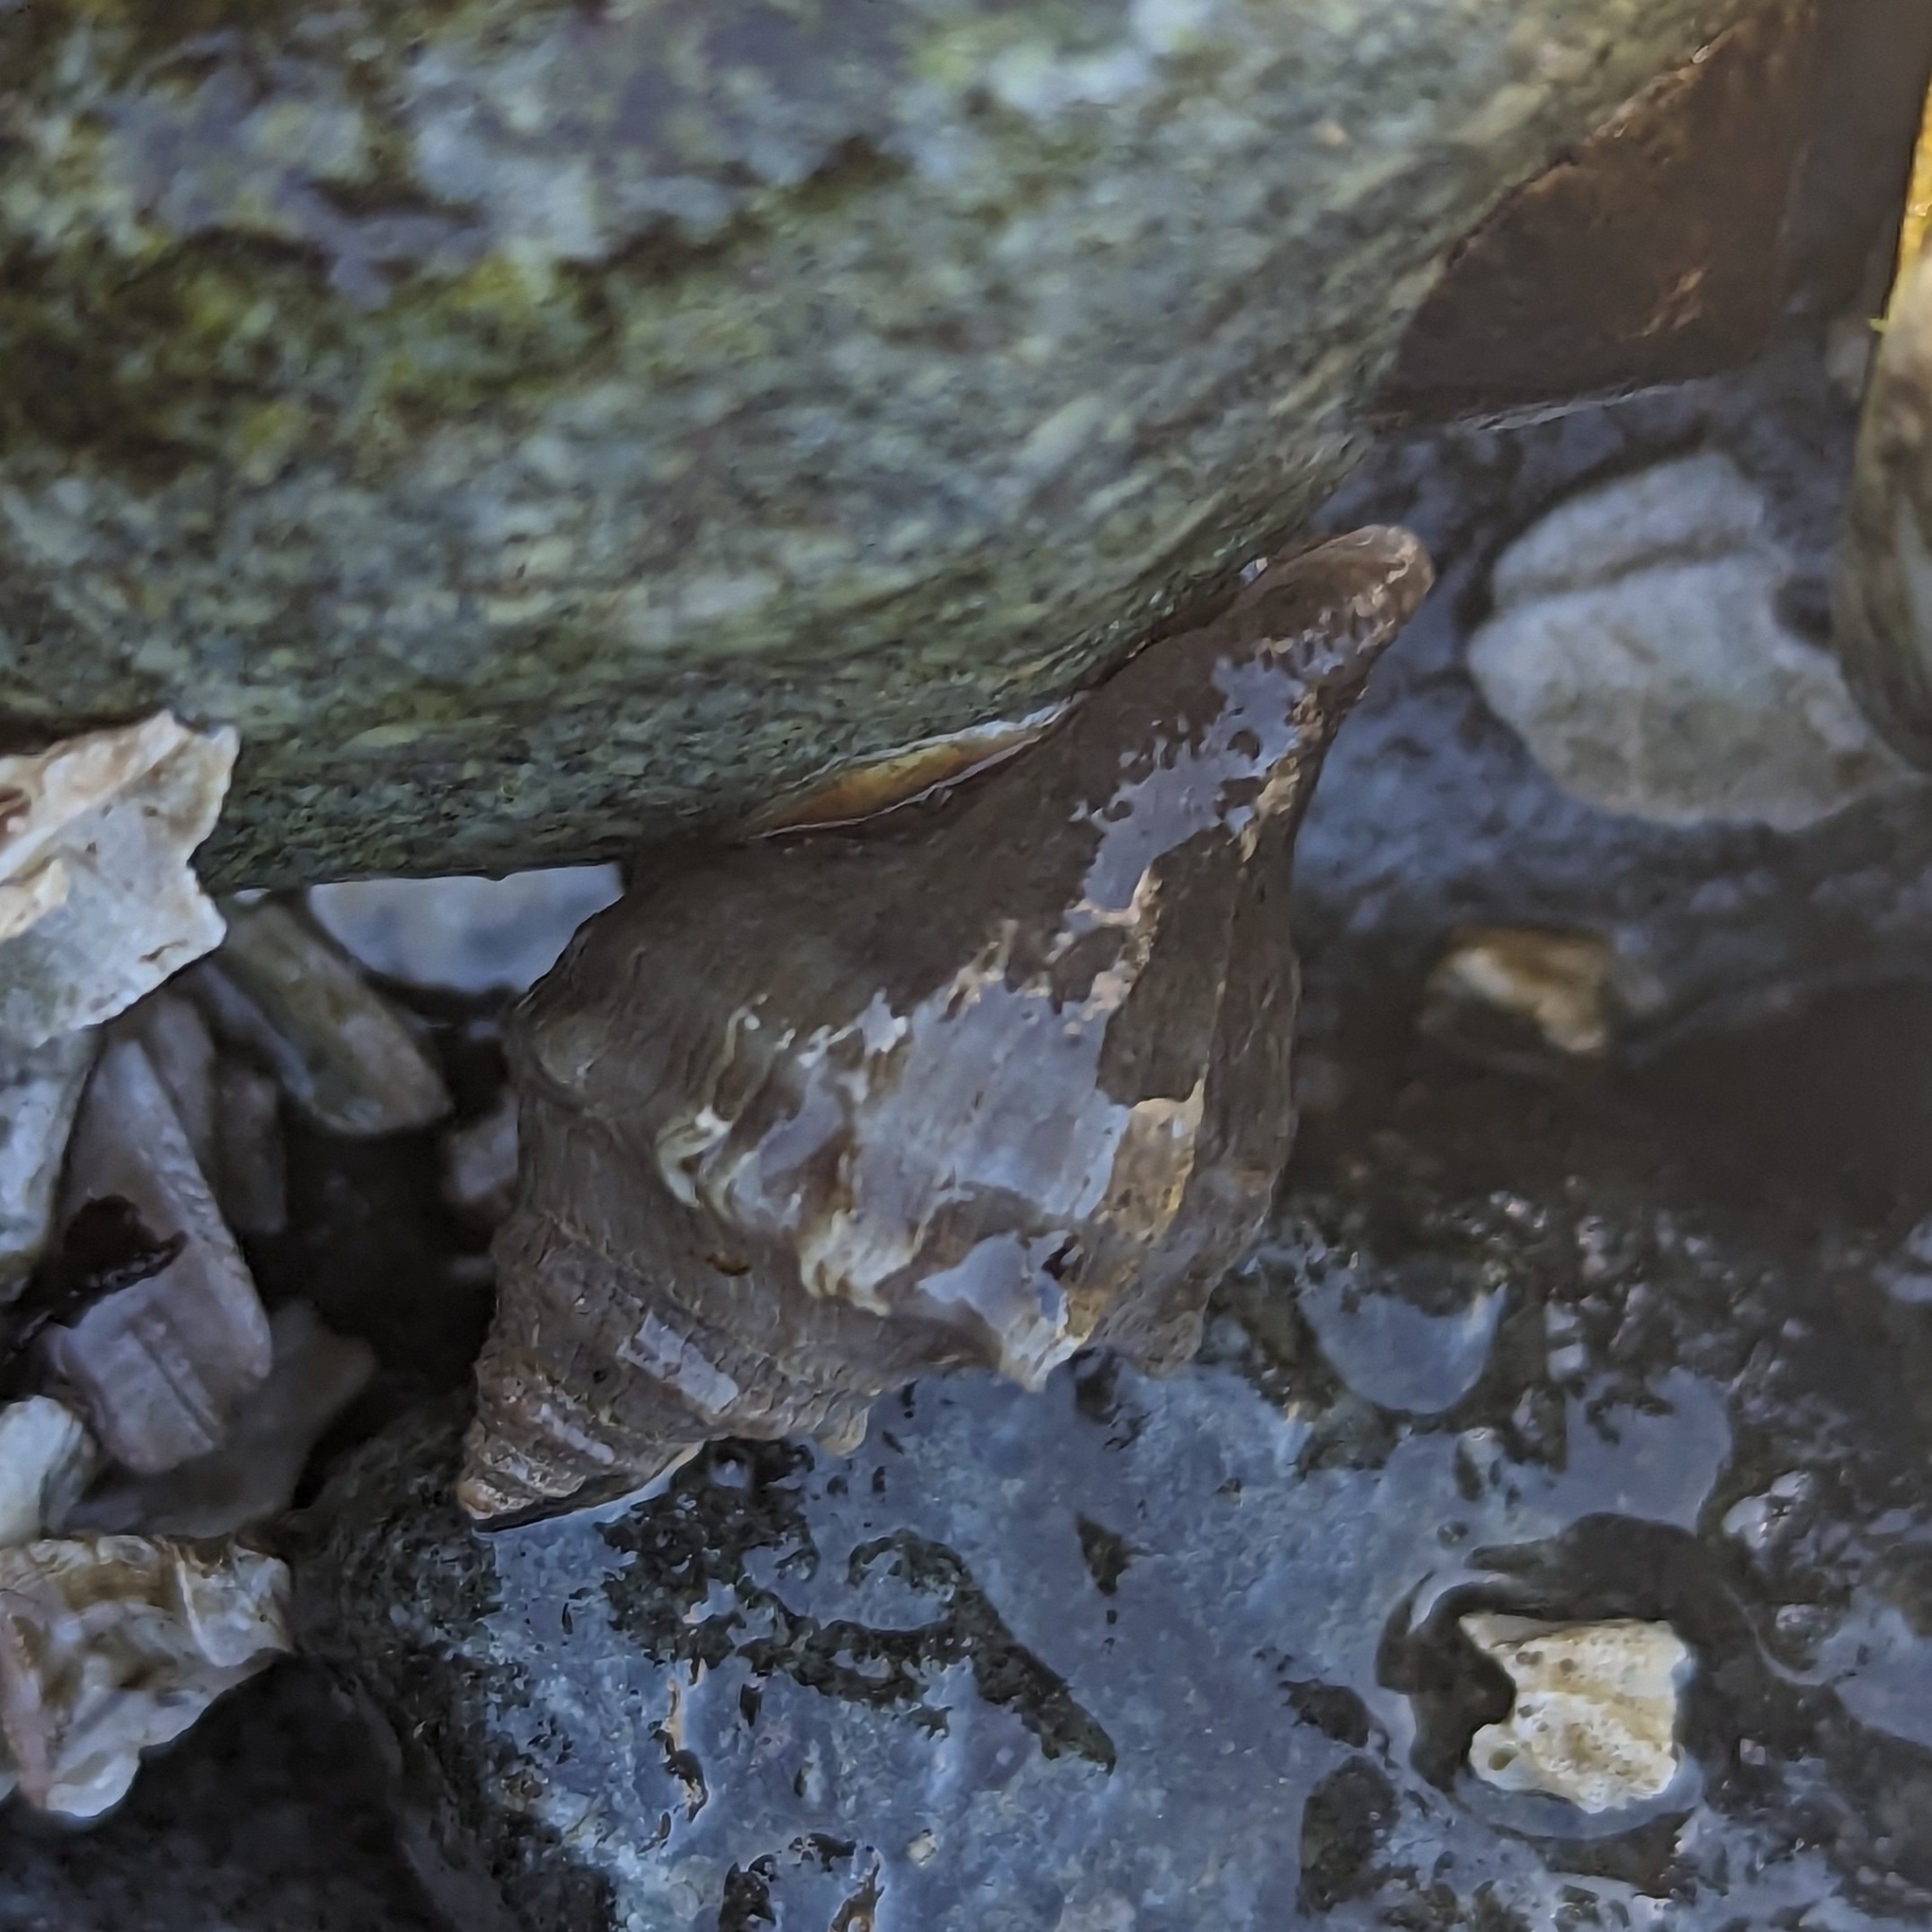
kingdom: Animalia
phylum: Mollusca
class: Gastropoda
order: Neogastropoda
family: Muricidae
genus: Nucella
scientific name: Nucella lamellosa
